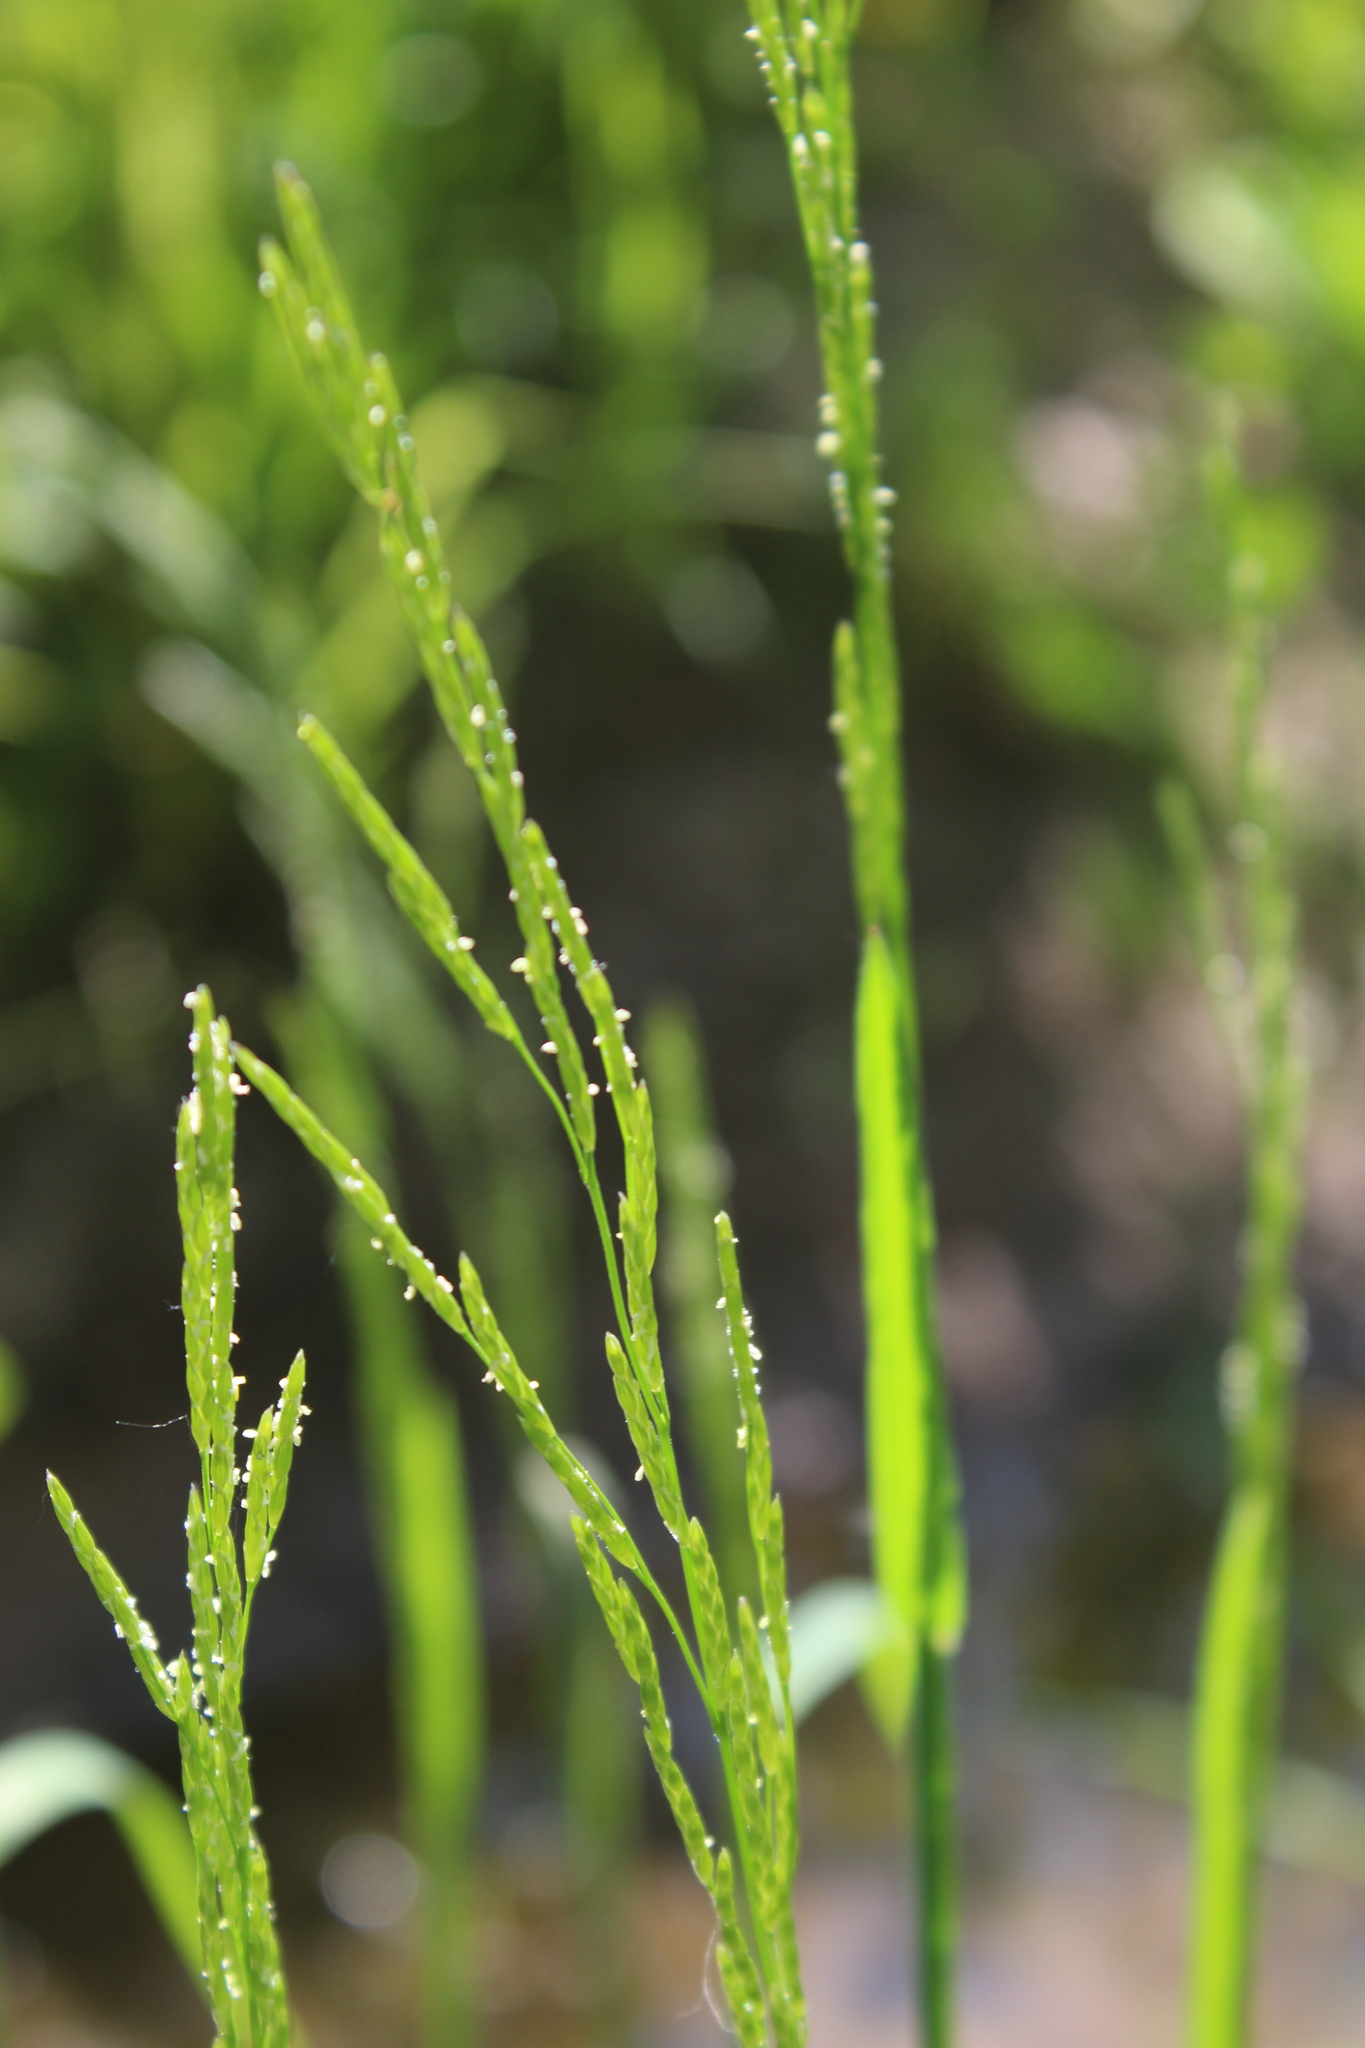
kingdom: Plantae
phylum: Tracheophyta
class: Liliopsida
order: Poales
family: Poaceae
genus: Glyceria
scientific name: Glyceria notata
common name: Plicate sweet-grass
